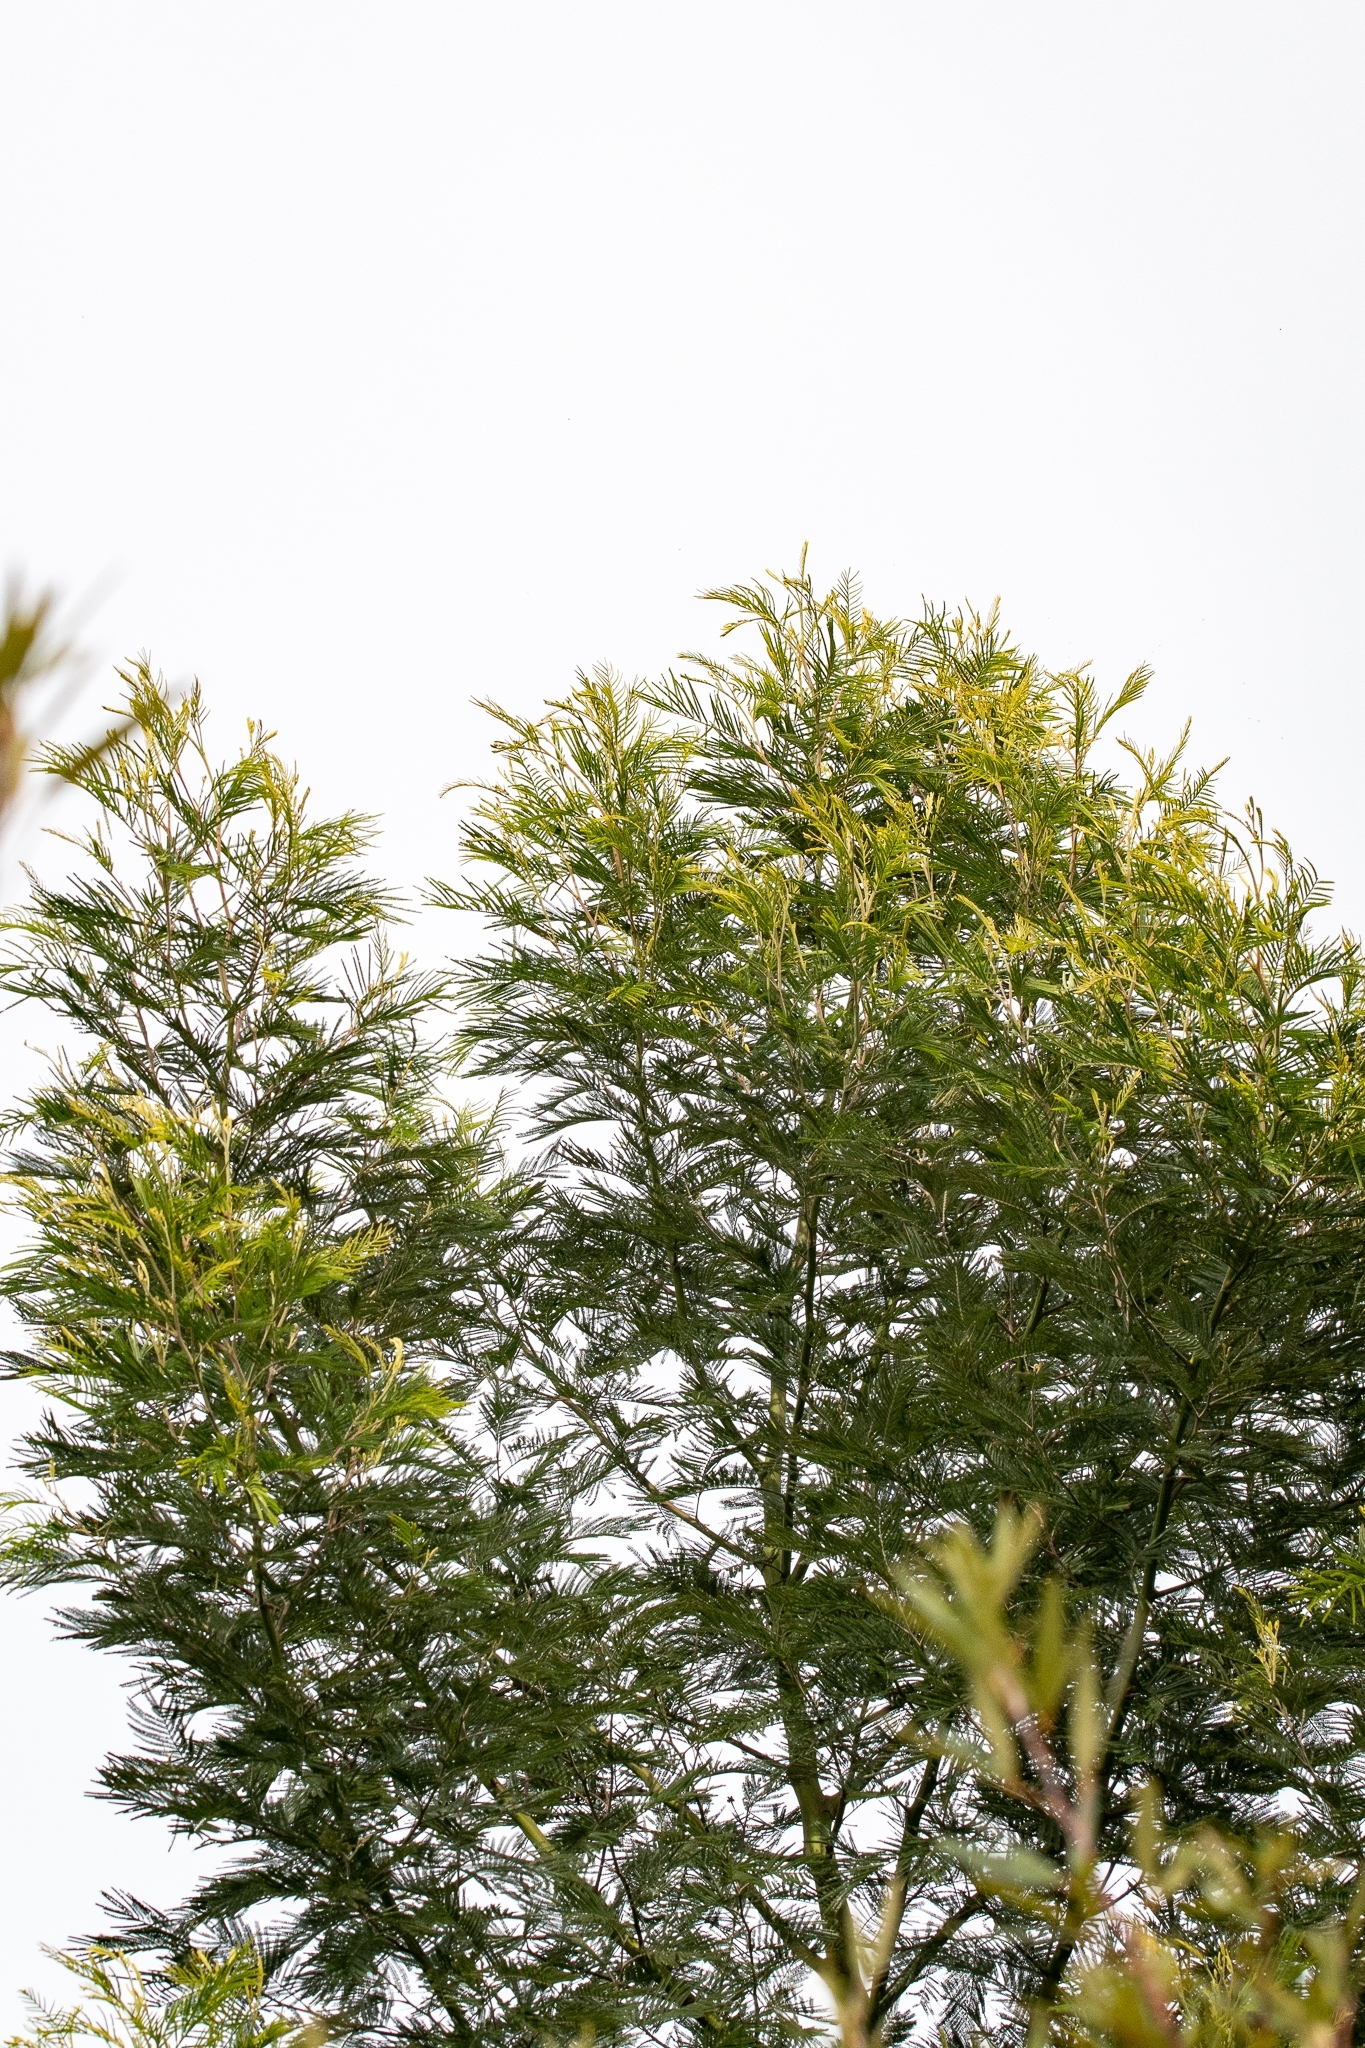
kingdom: Plantae
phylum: Tracheophyta
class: Magnoliopsida
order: Fabales
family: Fabaceae
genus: Acacia
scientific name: Acacia mearnsii
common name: Black wattle
